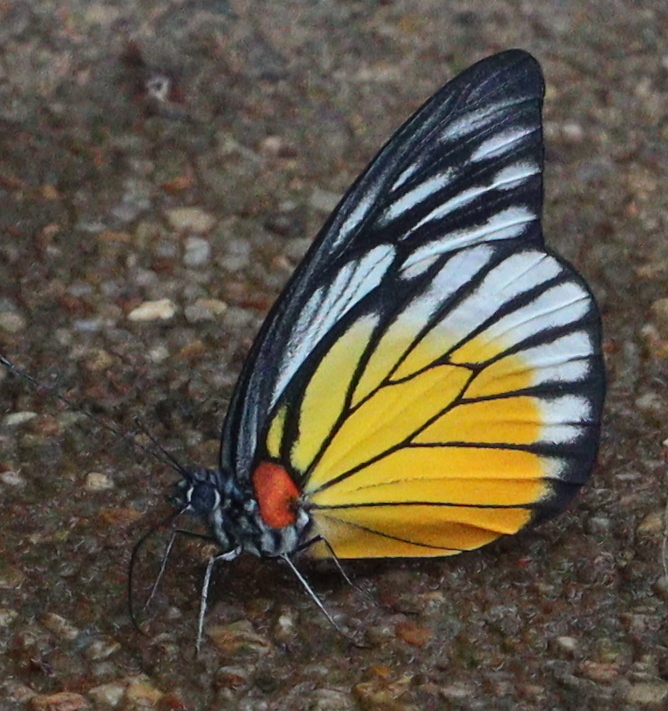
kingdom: Animalia
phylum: Arthropoda
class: Insecta
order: Lepidoptera
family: Pieridae
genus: Prioneris
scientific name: Prioneris philonome
